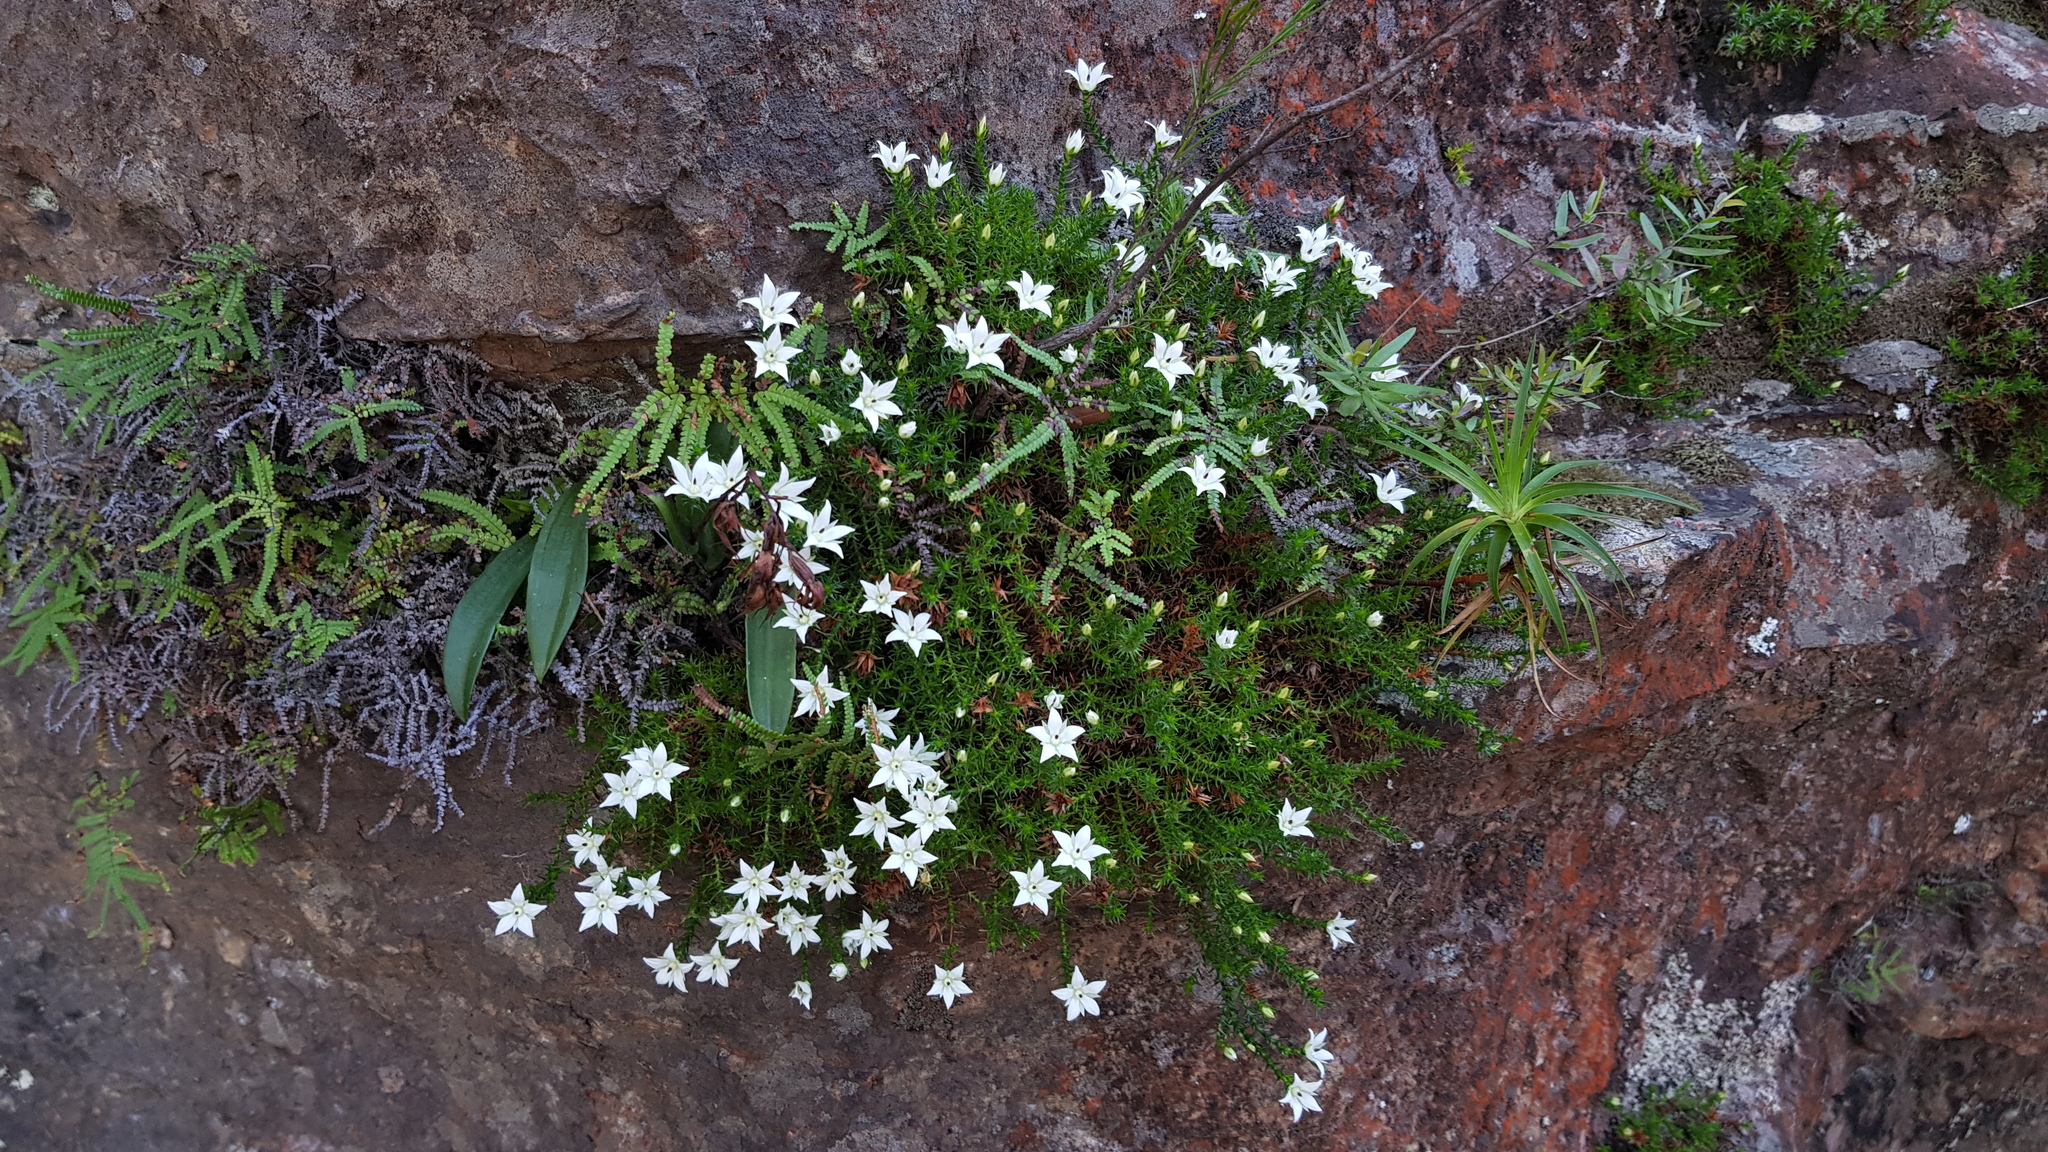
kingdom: Plantae
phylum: Tracheophyta
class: Magnoliopsida
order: Ericales
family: Ericaceae
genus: Sprengelia
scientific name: Sprengelia monticola
